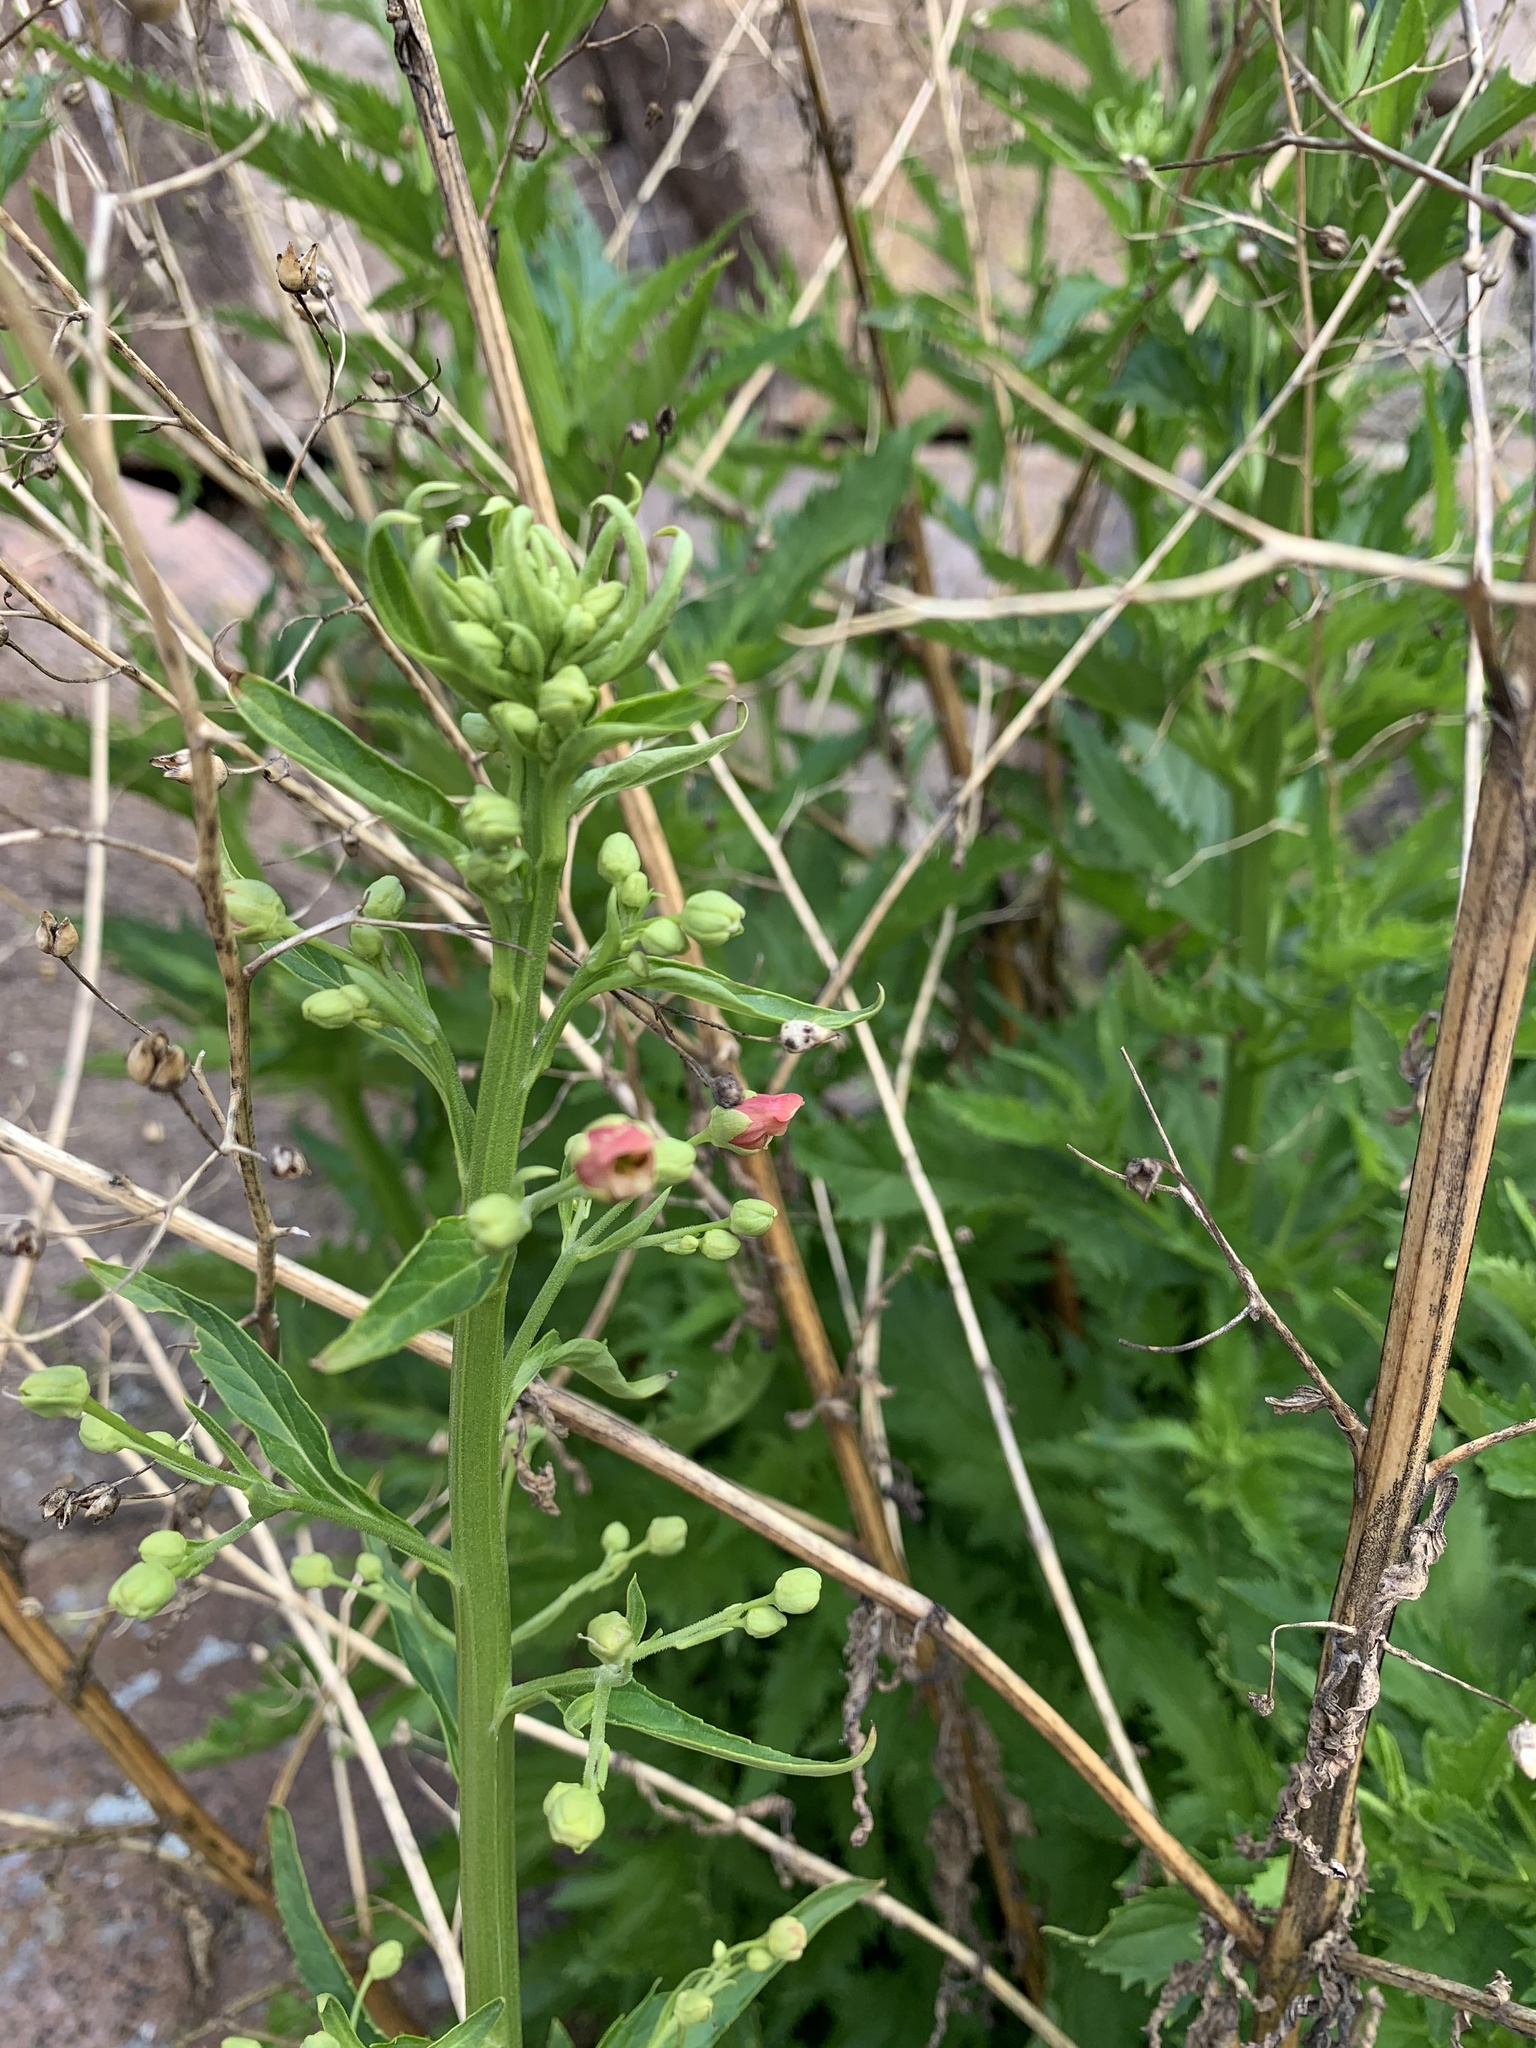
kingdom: Plantae
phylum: Tracheophyta
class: Magnoliopsida
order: Lamiales
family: Scrophulariaceae
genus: Scrophularia
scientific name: Scrophularia californica
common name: California figwort
